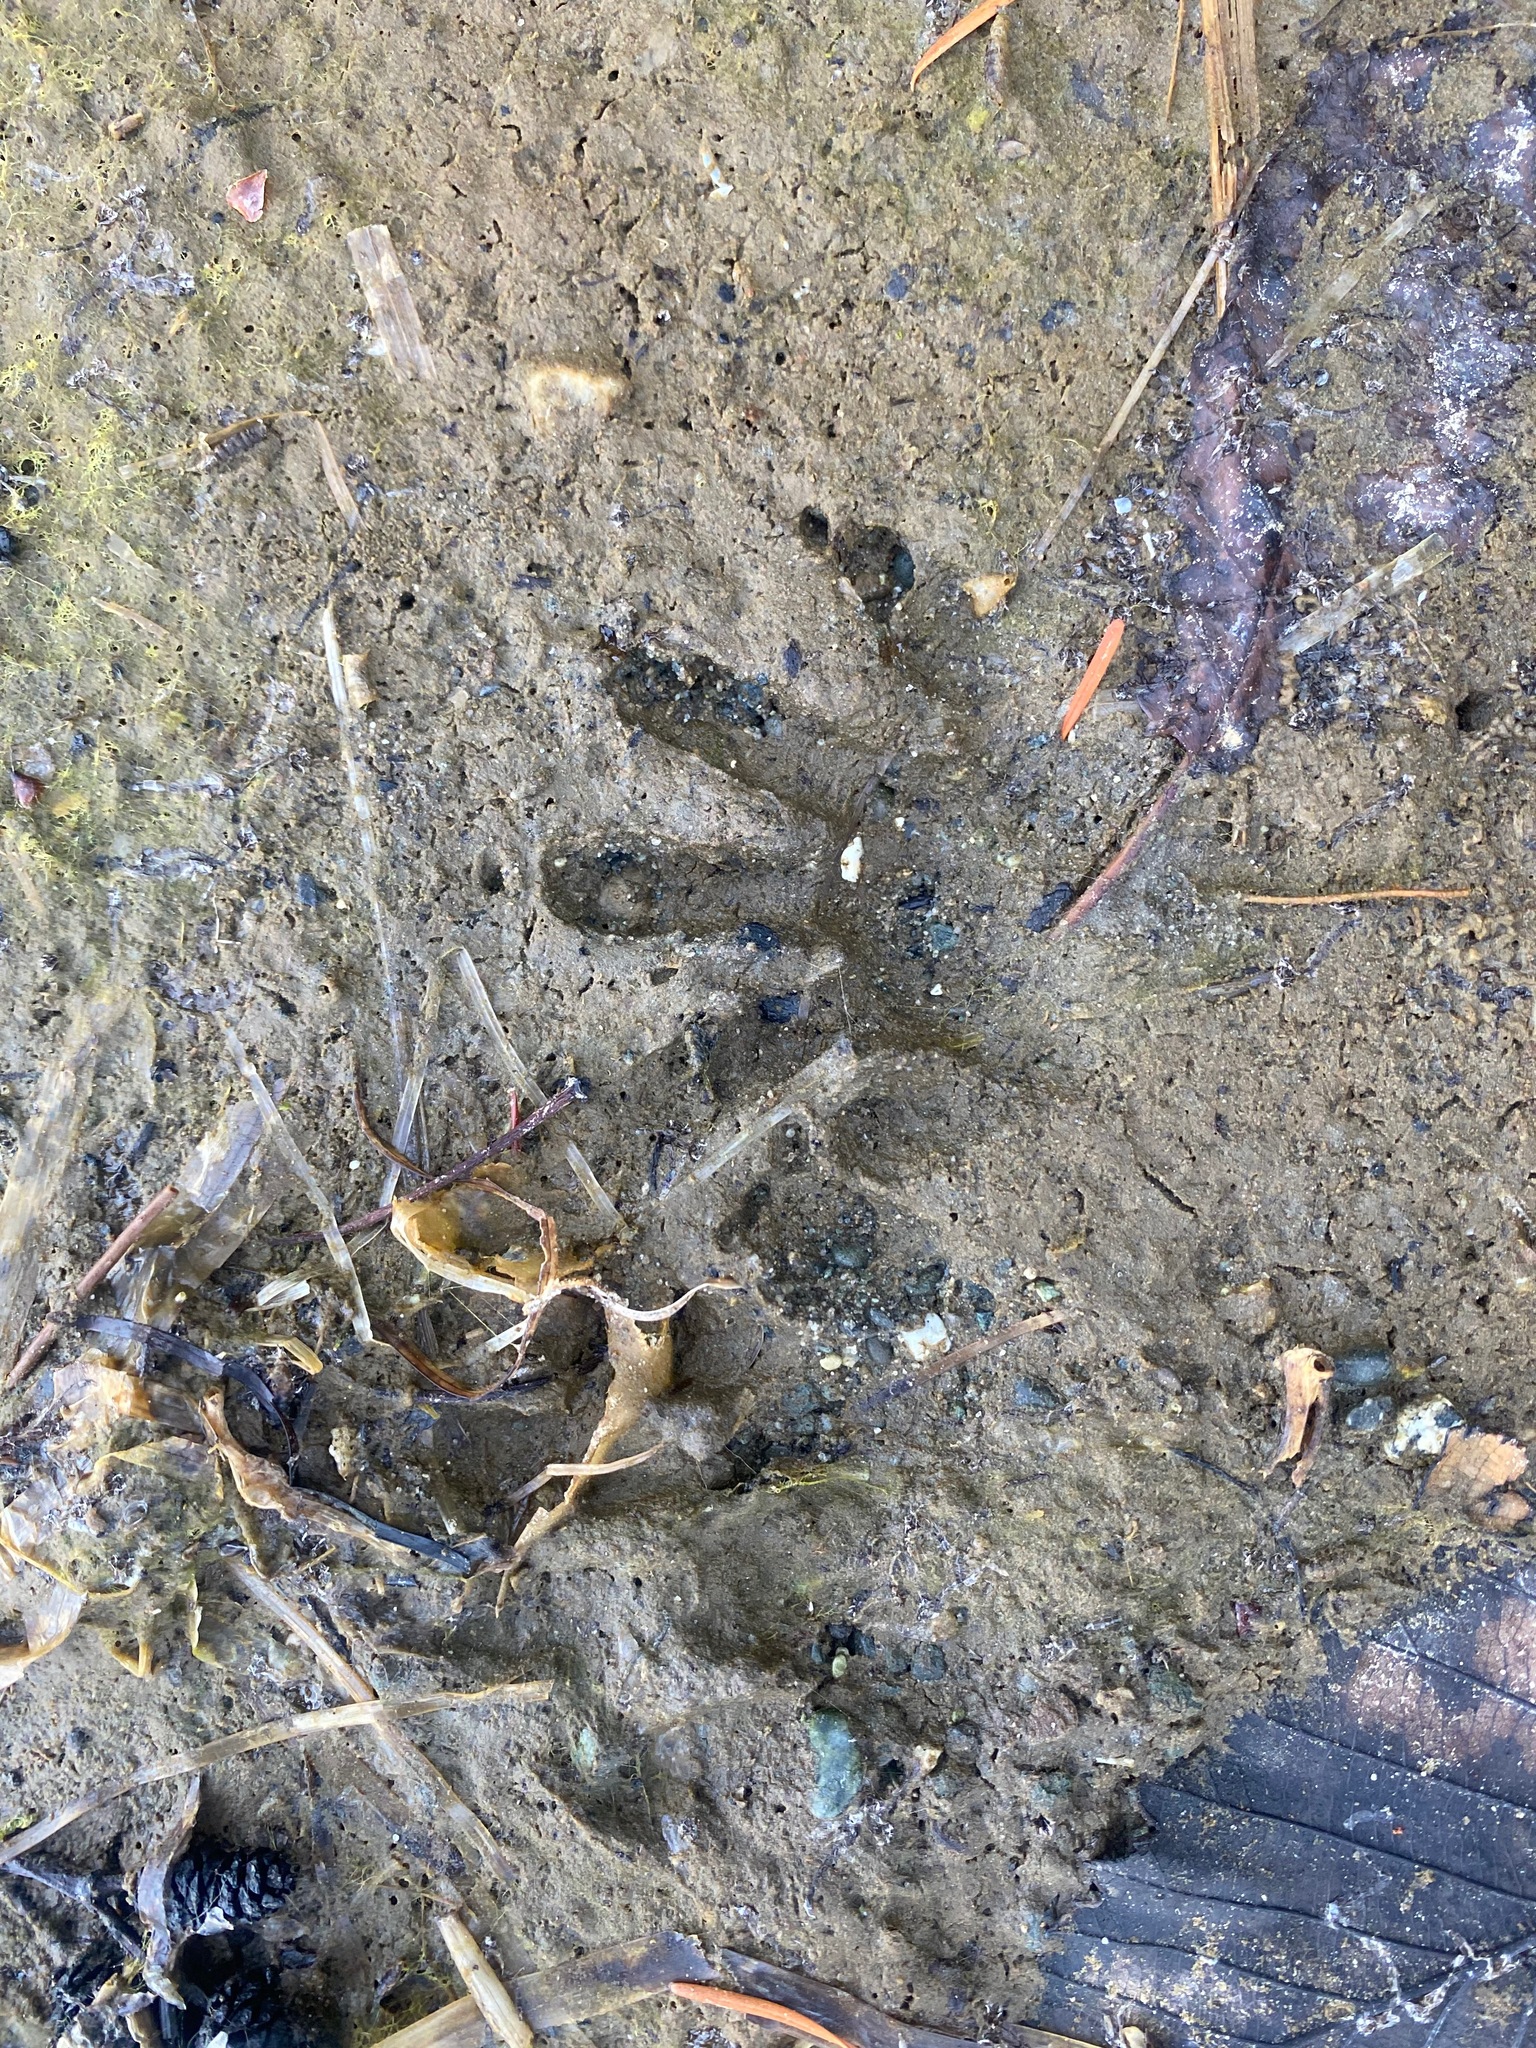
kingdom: Animalia
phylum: Chordata
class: Mammalia
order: Carnivora
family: Procyonidae
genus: Procyon
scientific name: Procyon lotor
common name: Raccoon
